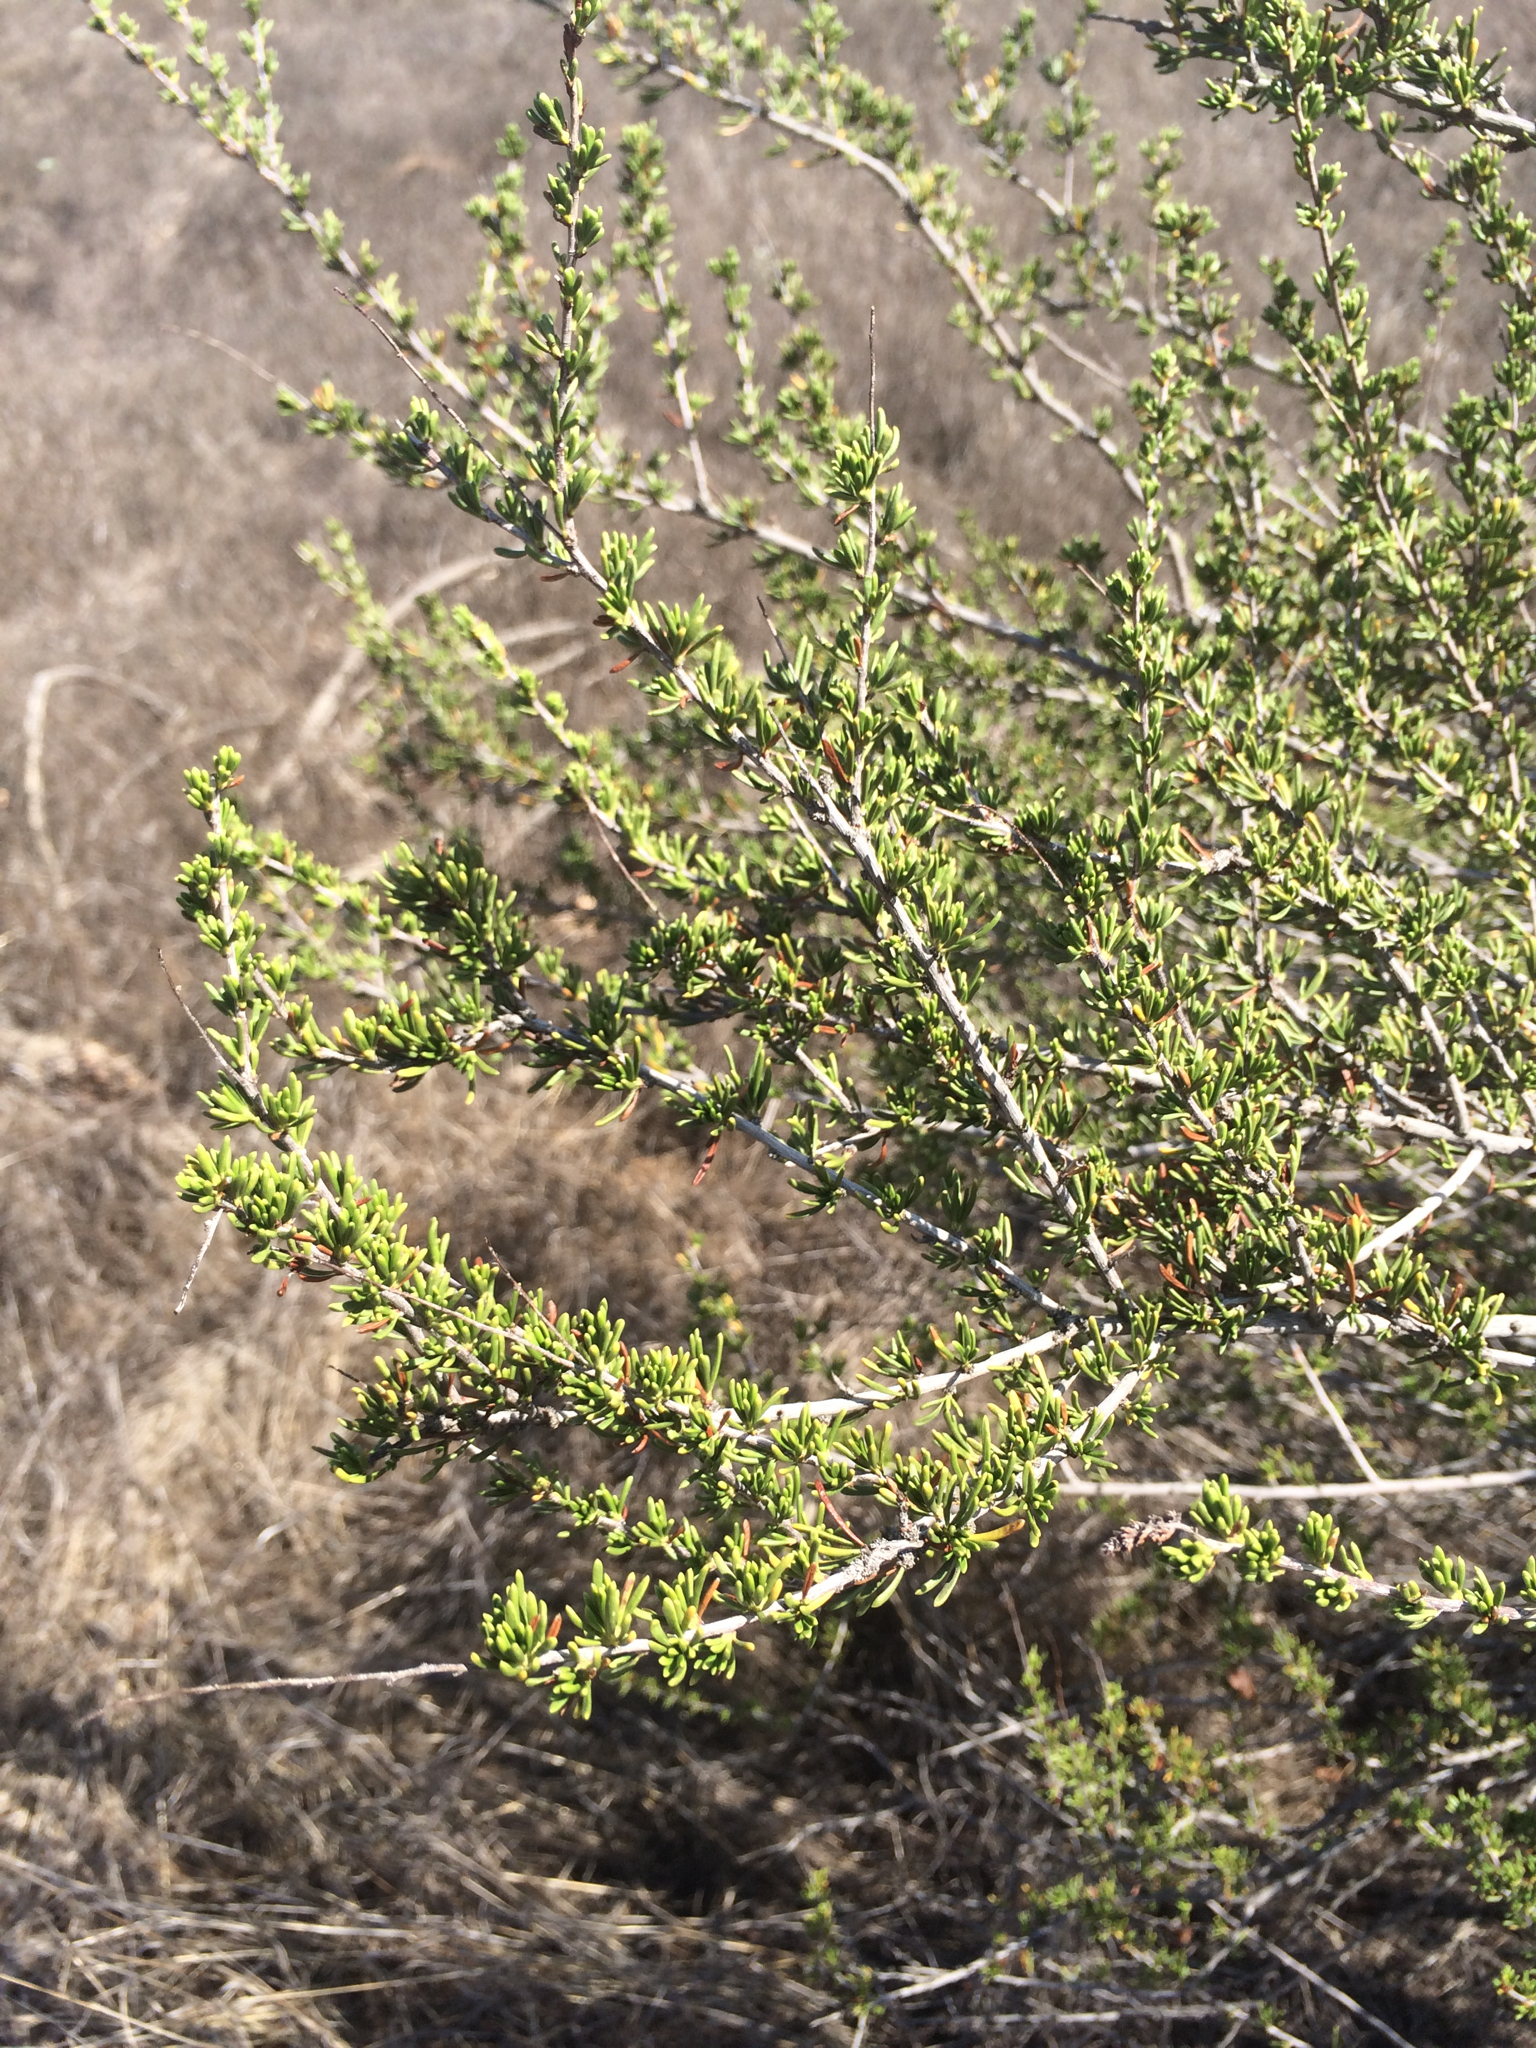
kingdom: Plantae
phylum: Tracheophyta
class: Magnoliopsida
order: Rosales
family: Rosaceae
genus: Adenostoma
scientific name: Adenostoma fasciculatum
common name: Chamise
